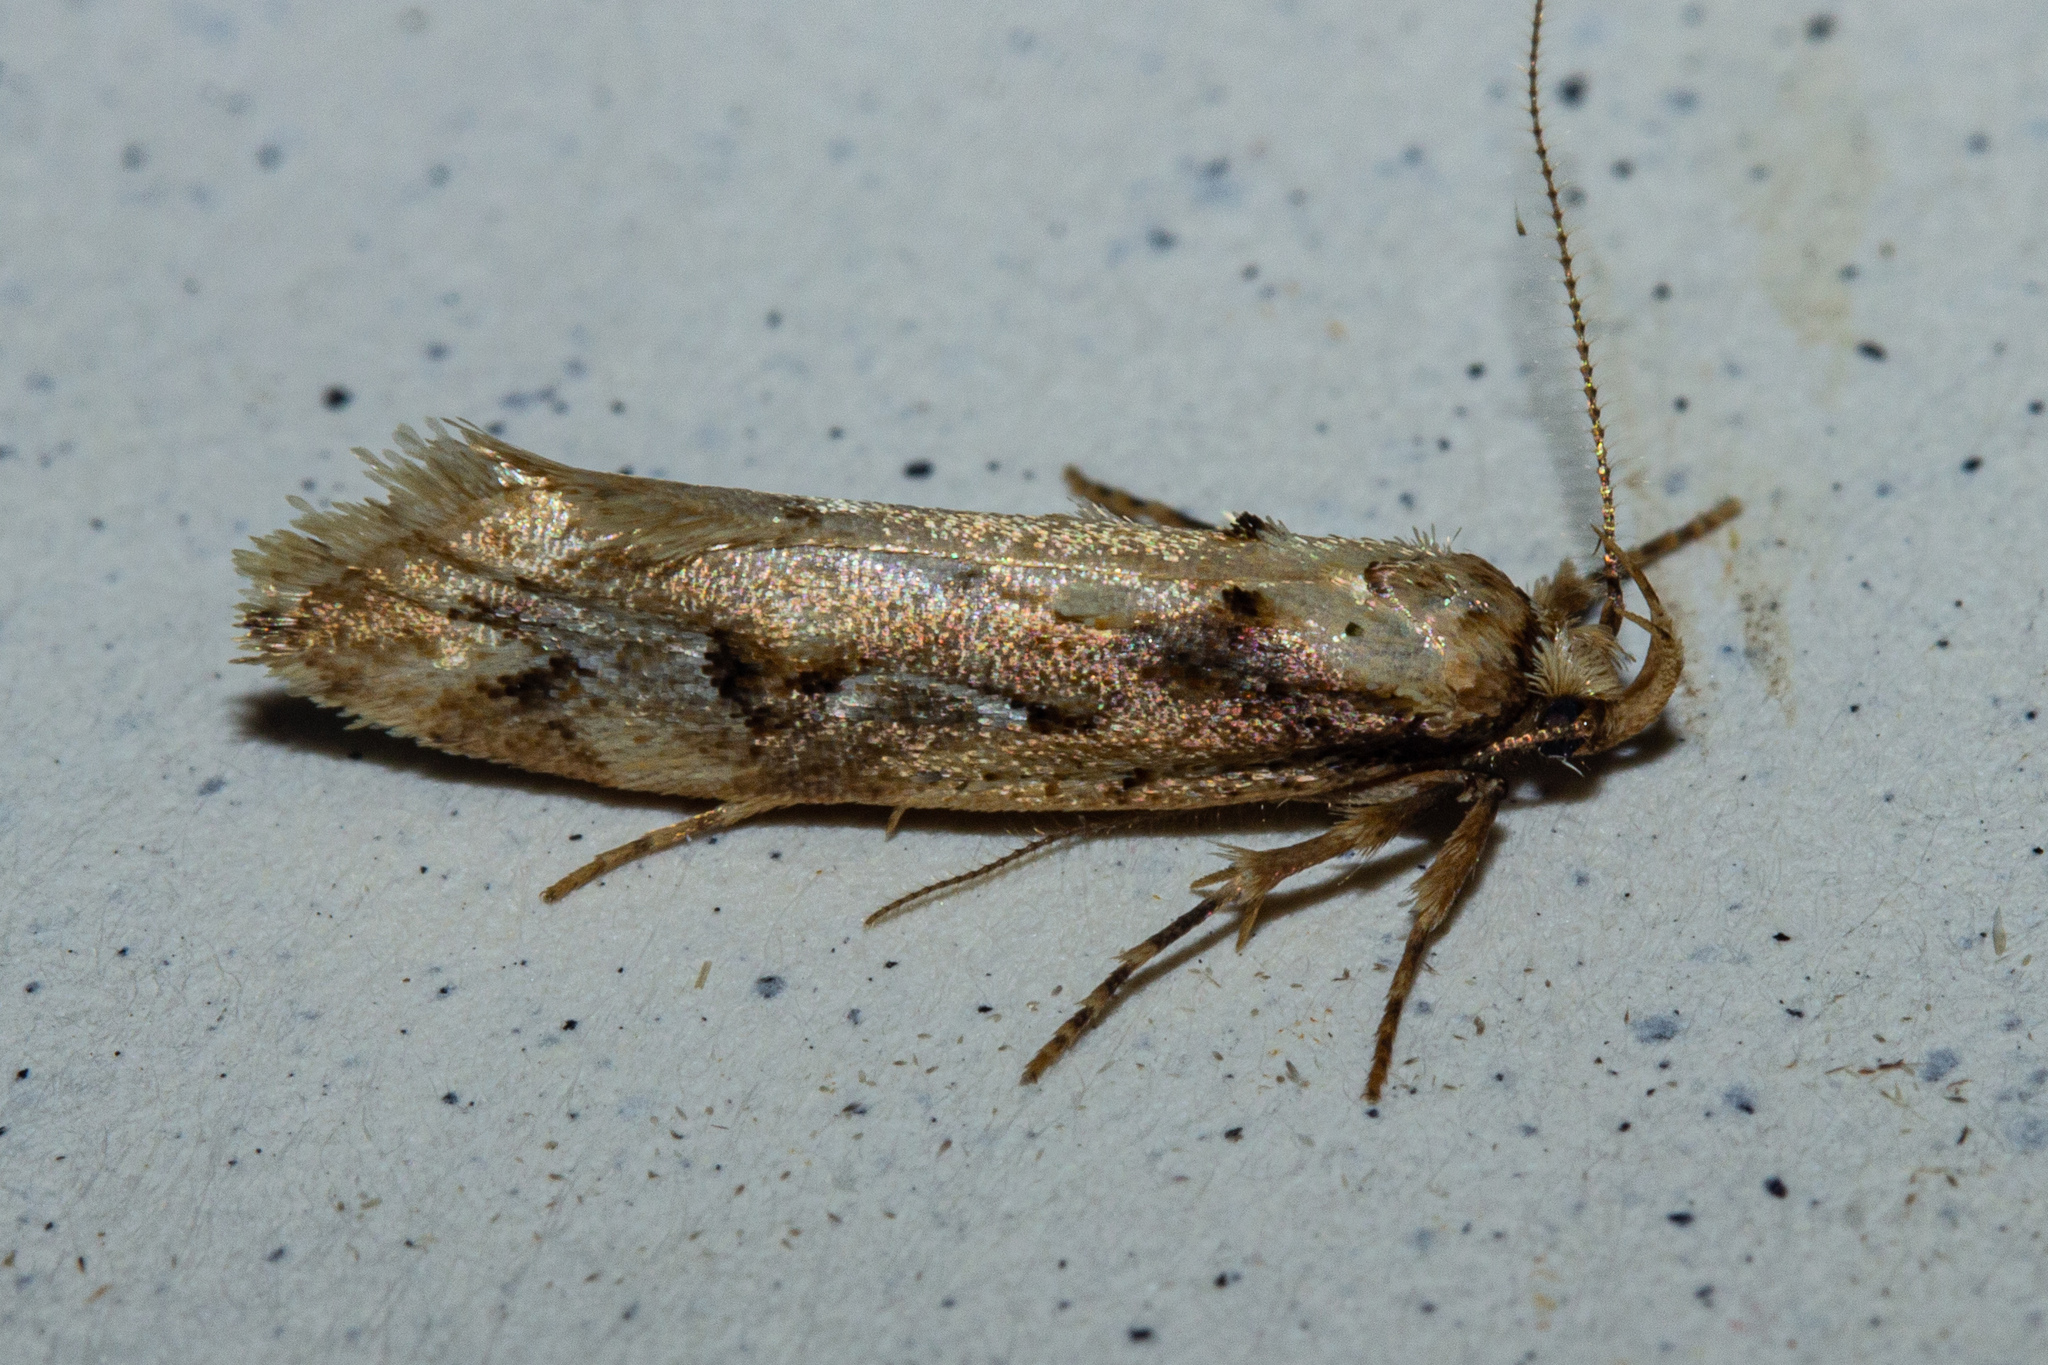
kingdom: Animalia
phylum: Arthropoda
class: Insecta
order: Lepidoptera
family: Oecophoridae
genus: Atomotricha
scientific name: Atomotricha prospiciens
